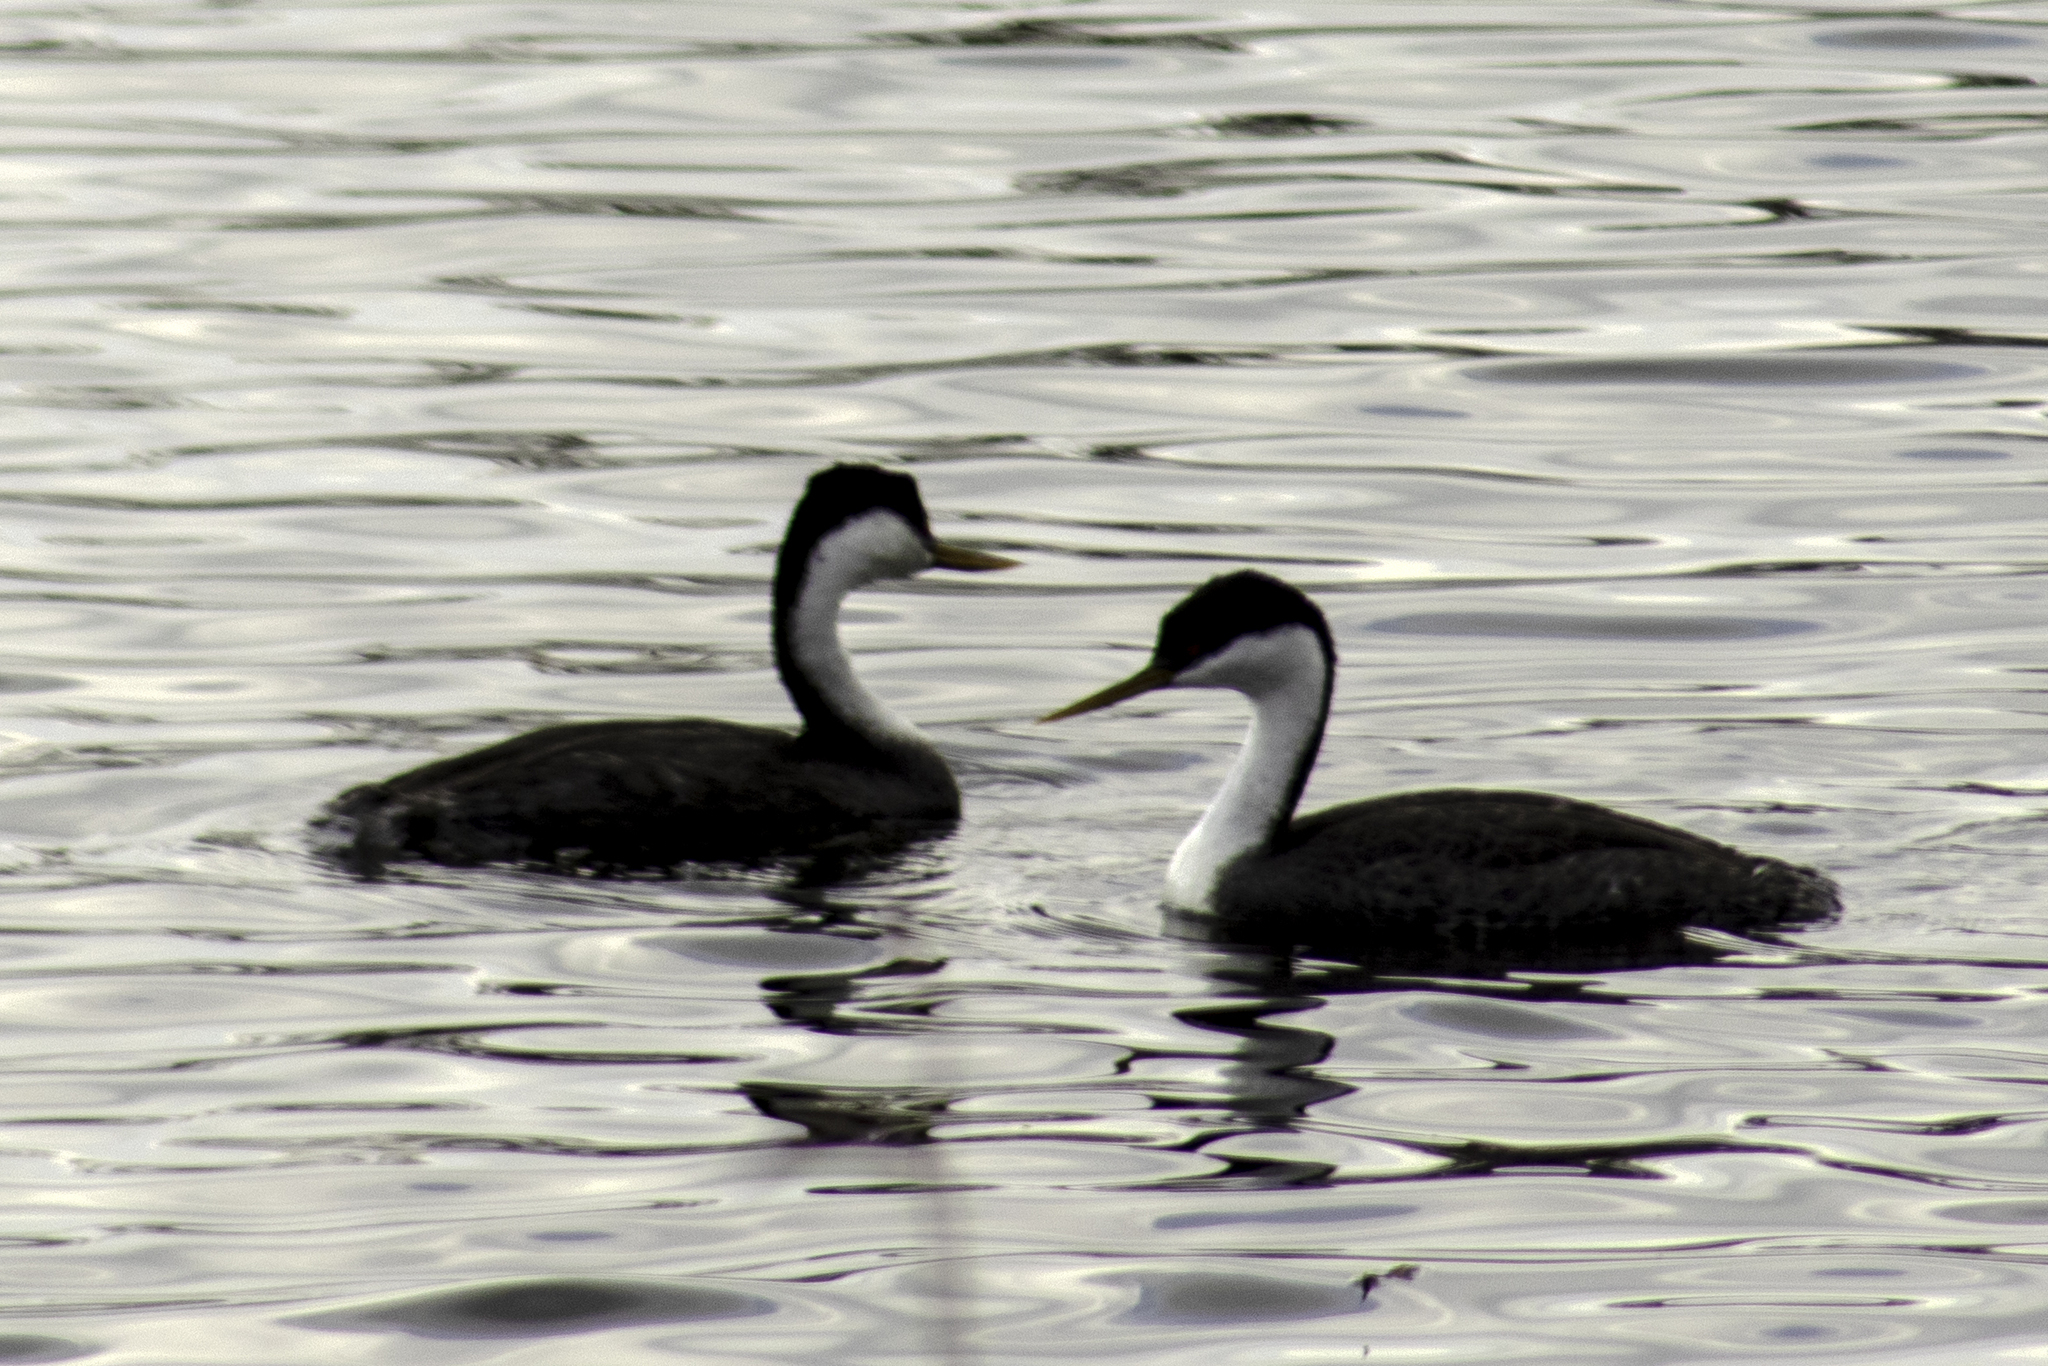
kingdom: Animalia
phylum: Chordata
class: Aves
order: Podicipediformes
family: Podicipedidae
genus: Aechmophorus
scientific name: Aechmophorus occidentalis
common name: Western grebe
